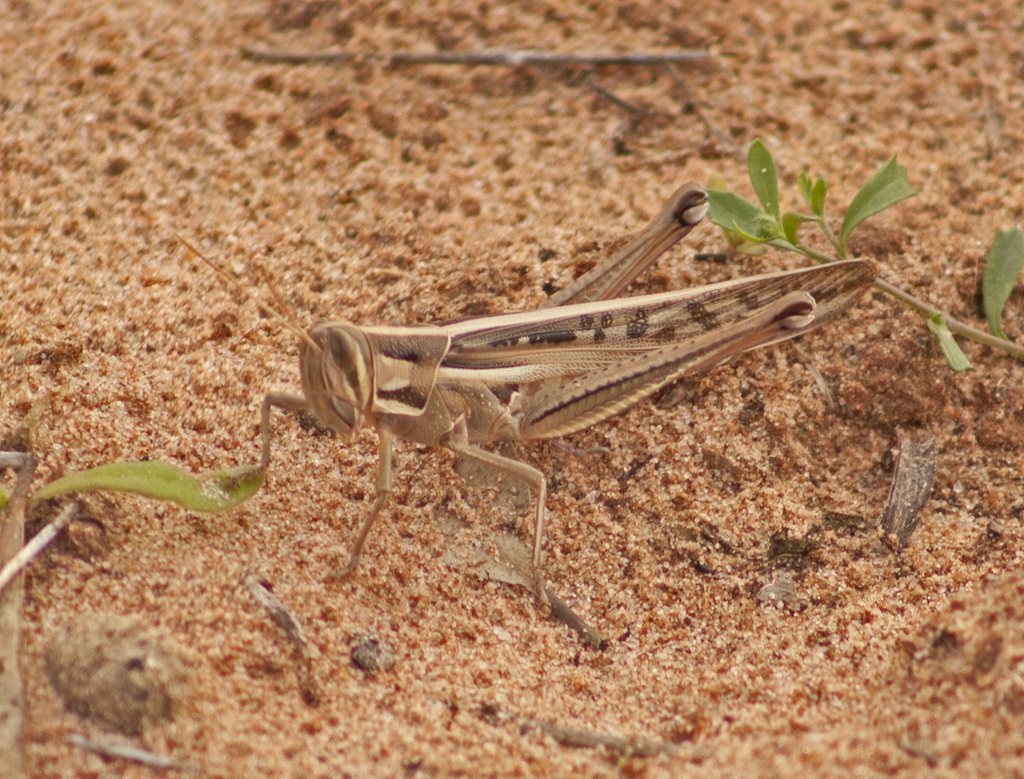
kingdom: Animalia
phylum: Arthropoda
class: Insecta
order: Orthoptera
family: Acrididae
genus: Austracris
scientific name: Austracris guttulosa
